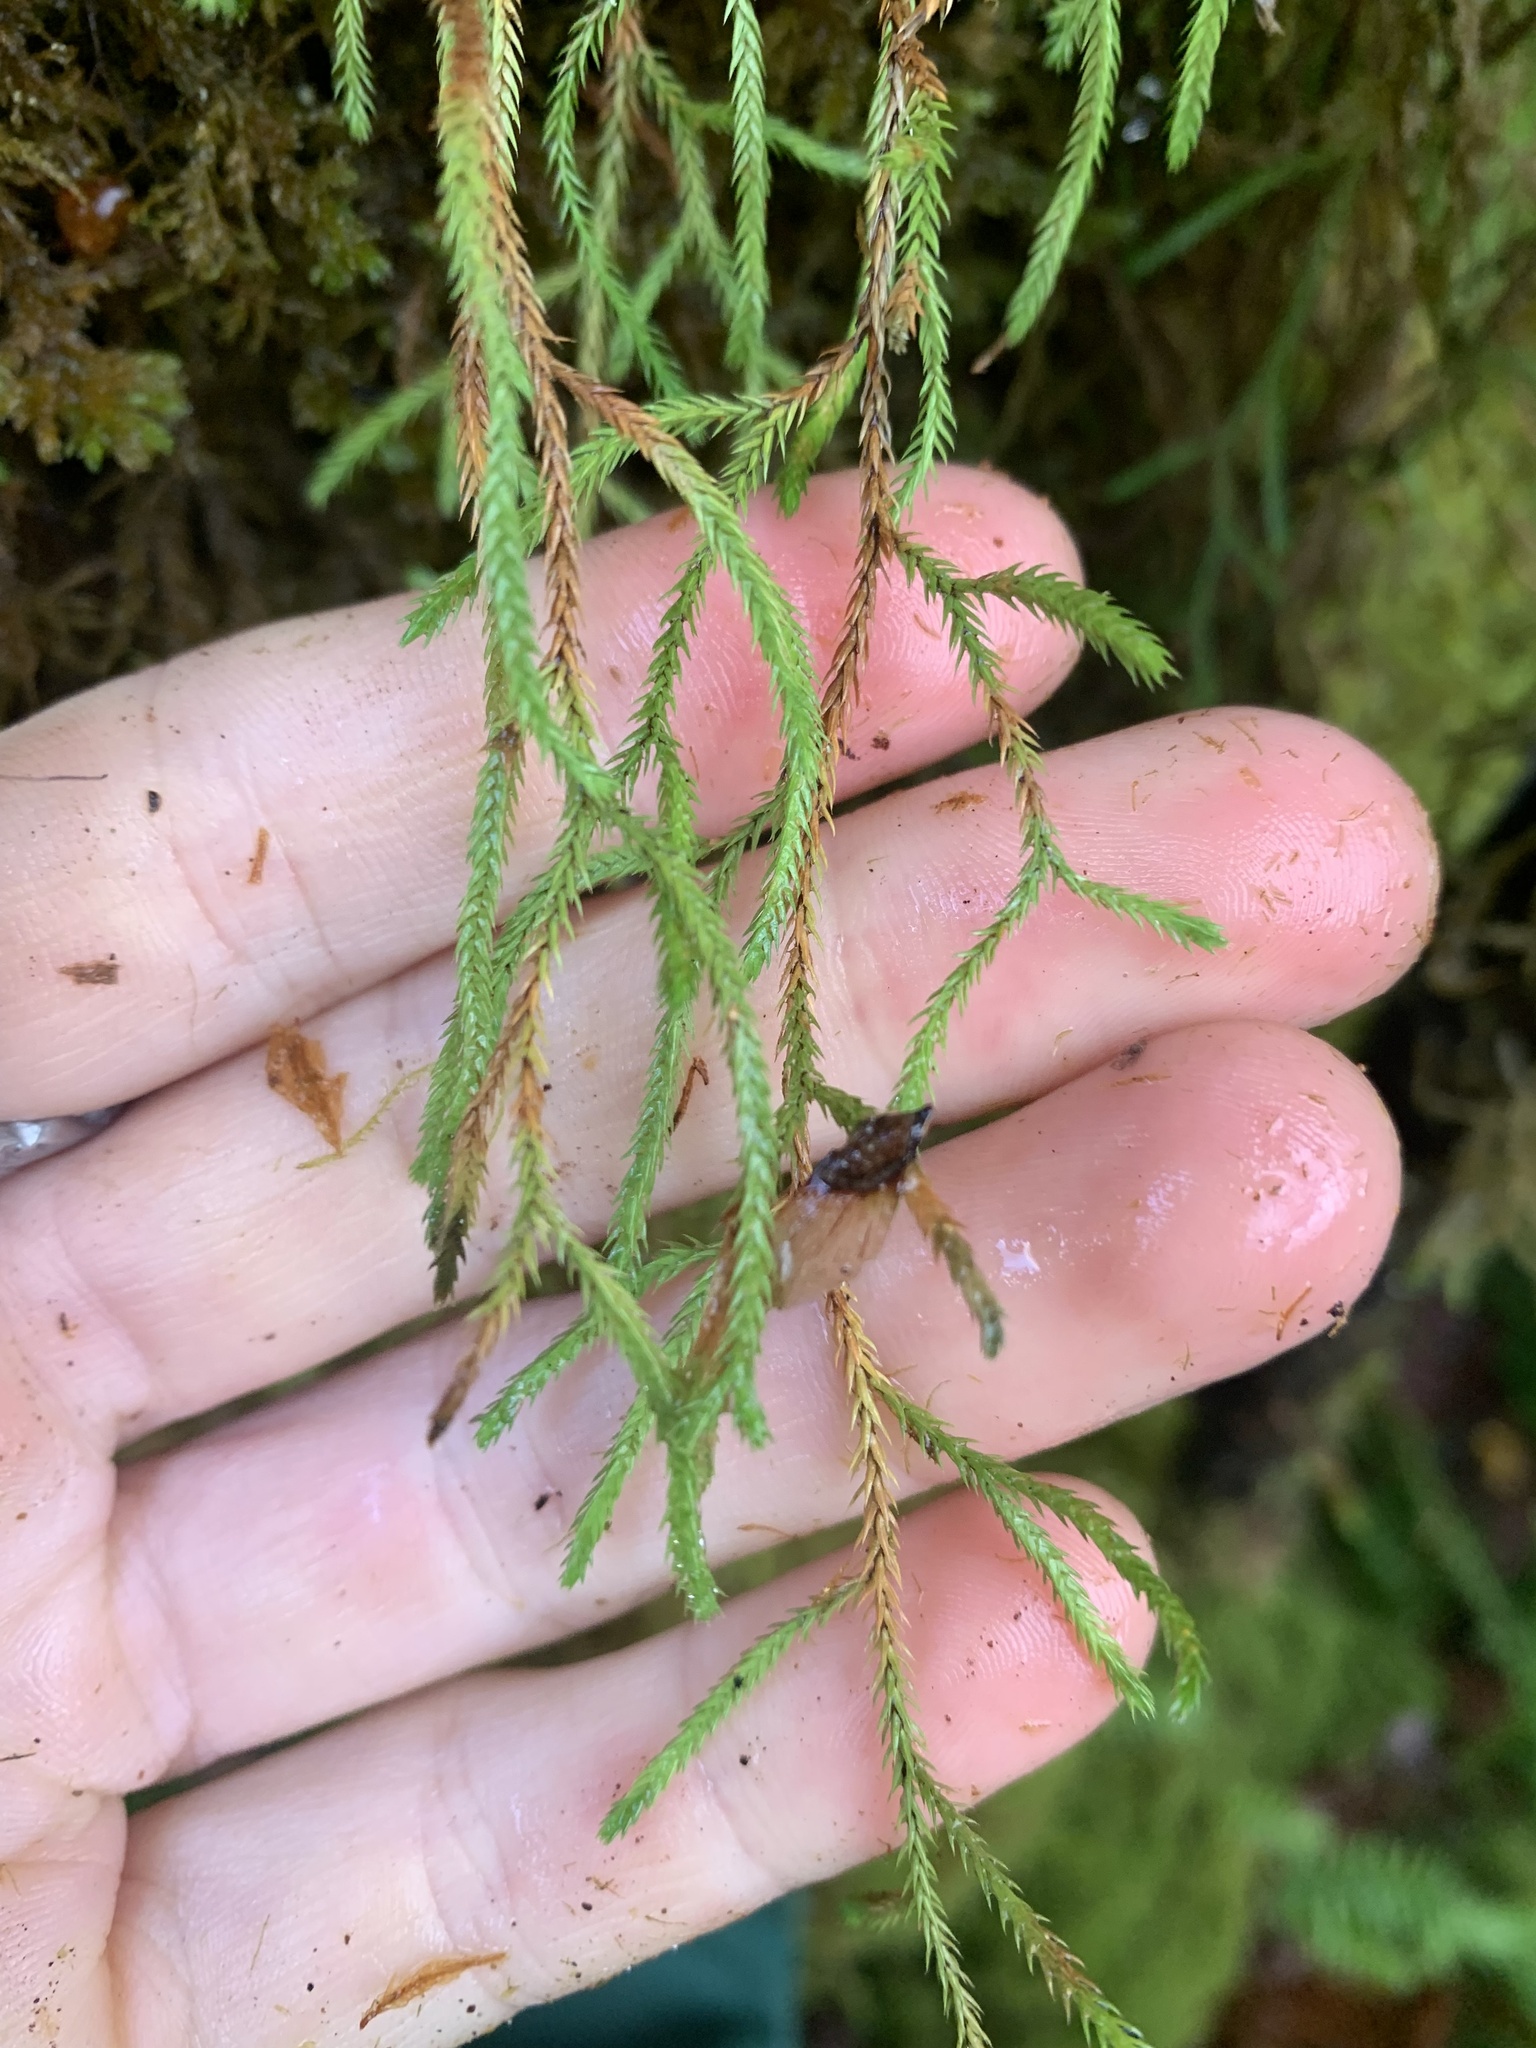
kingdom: Plantae
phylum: Tracheophyta
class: Lycopodiopsida
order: Selaginellales
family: Selaginellaceae
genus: Selaginella
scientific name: Selaginella oregana
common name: Oregon selaginella
